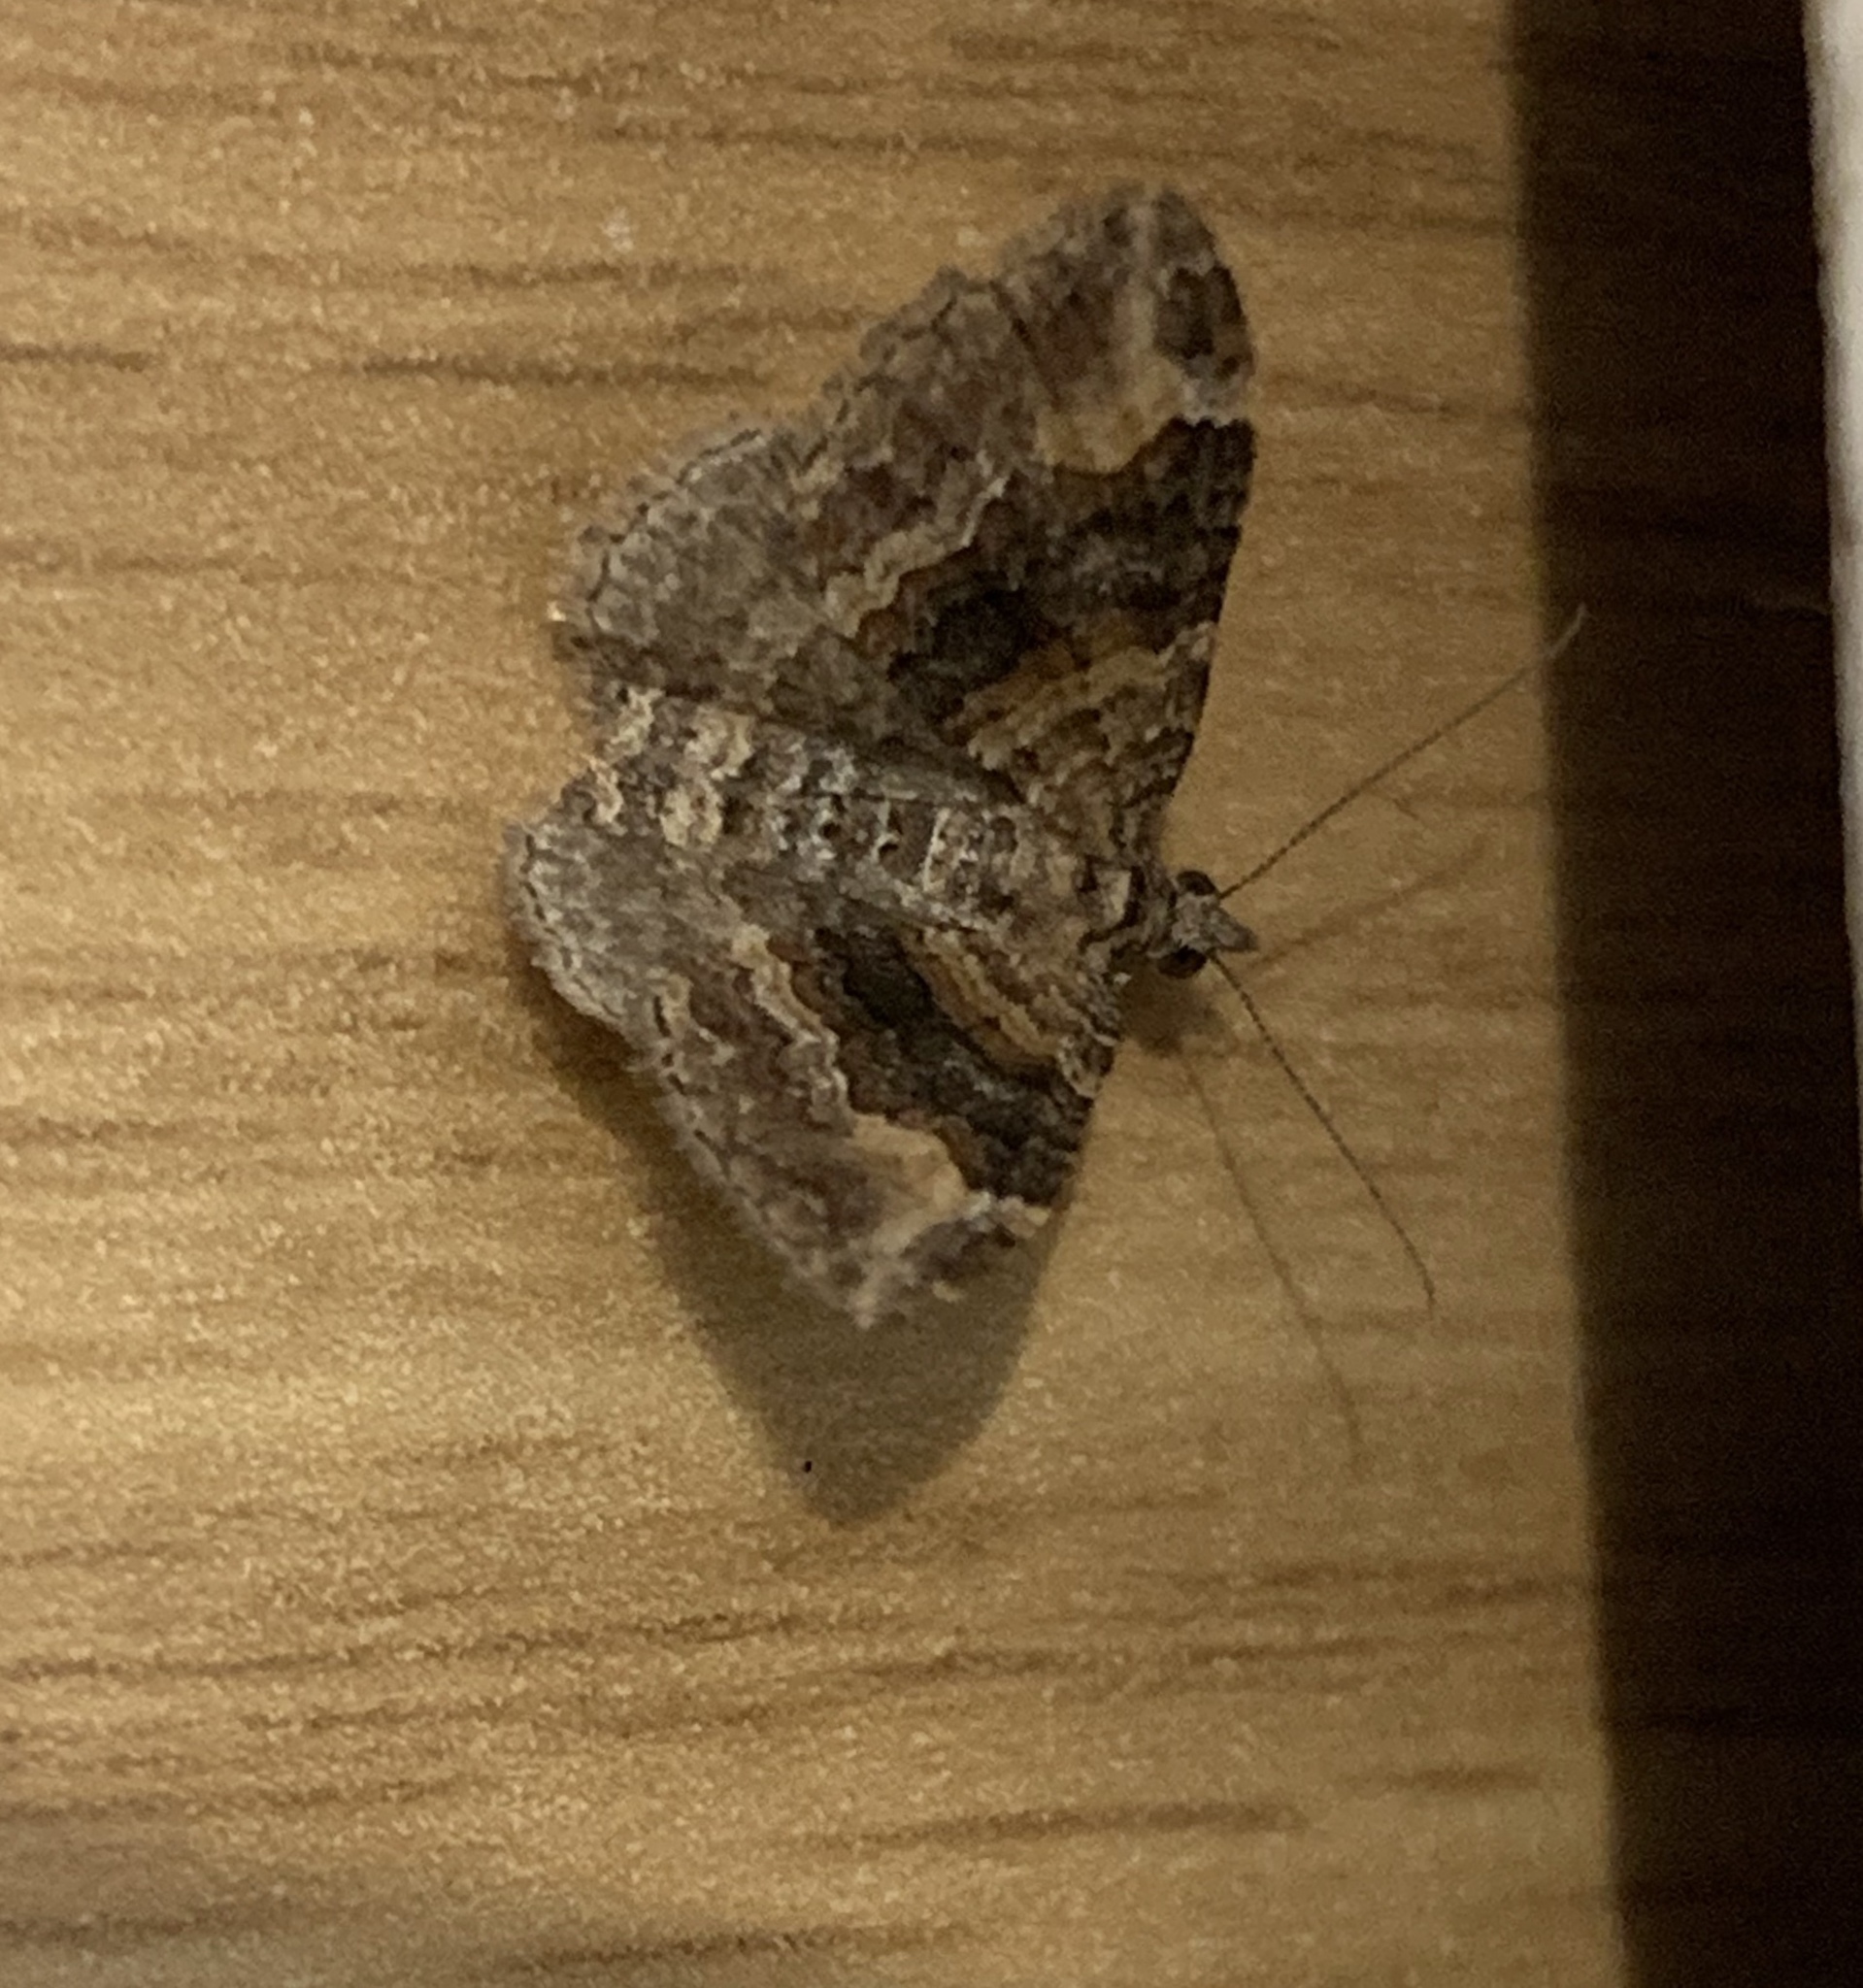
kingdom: Animalia
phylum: Arthropoda
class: Insecta
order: Lepidoptera
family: Geometridae
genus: Epyaxa
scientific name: Epyaxa lucidata
